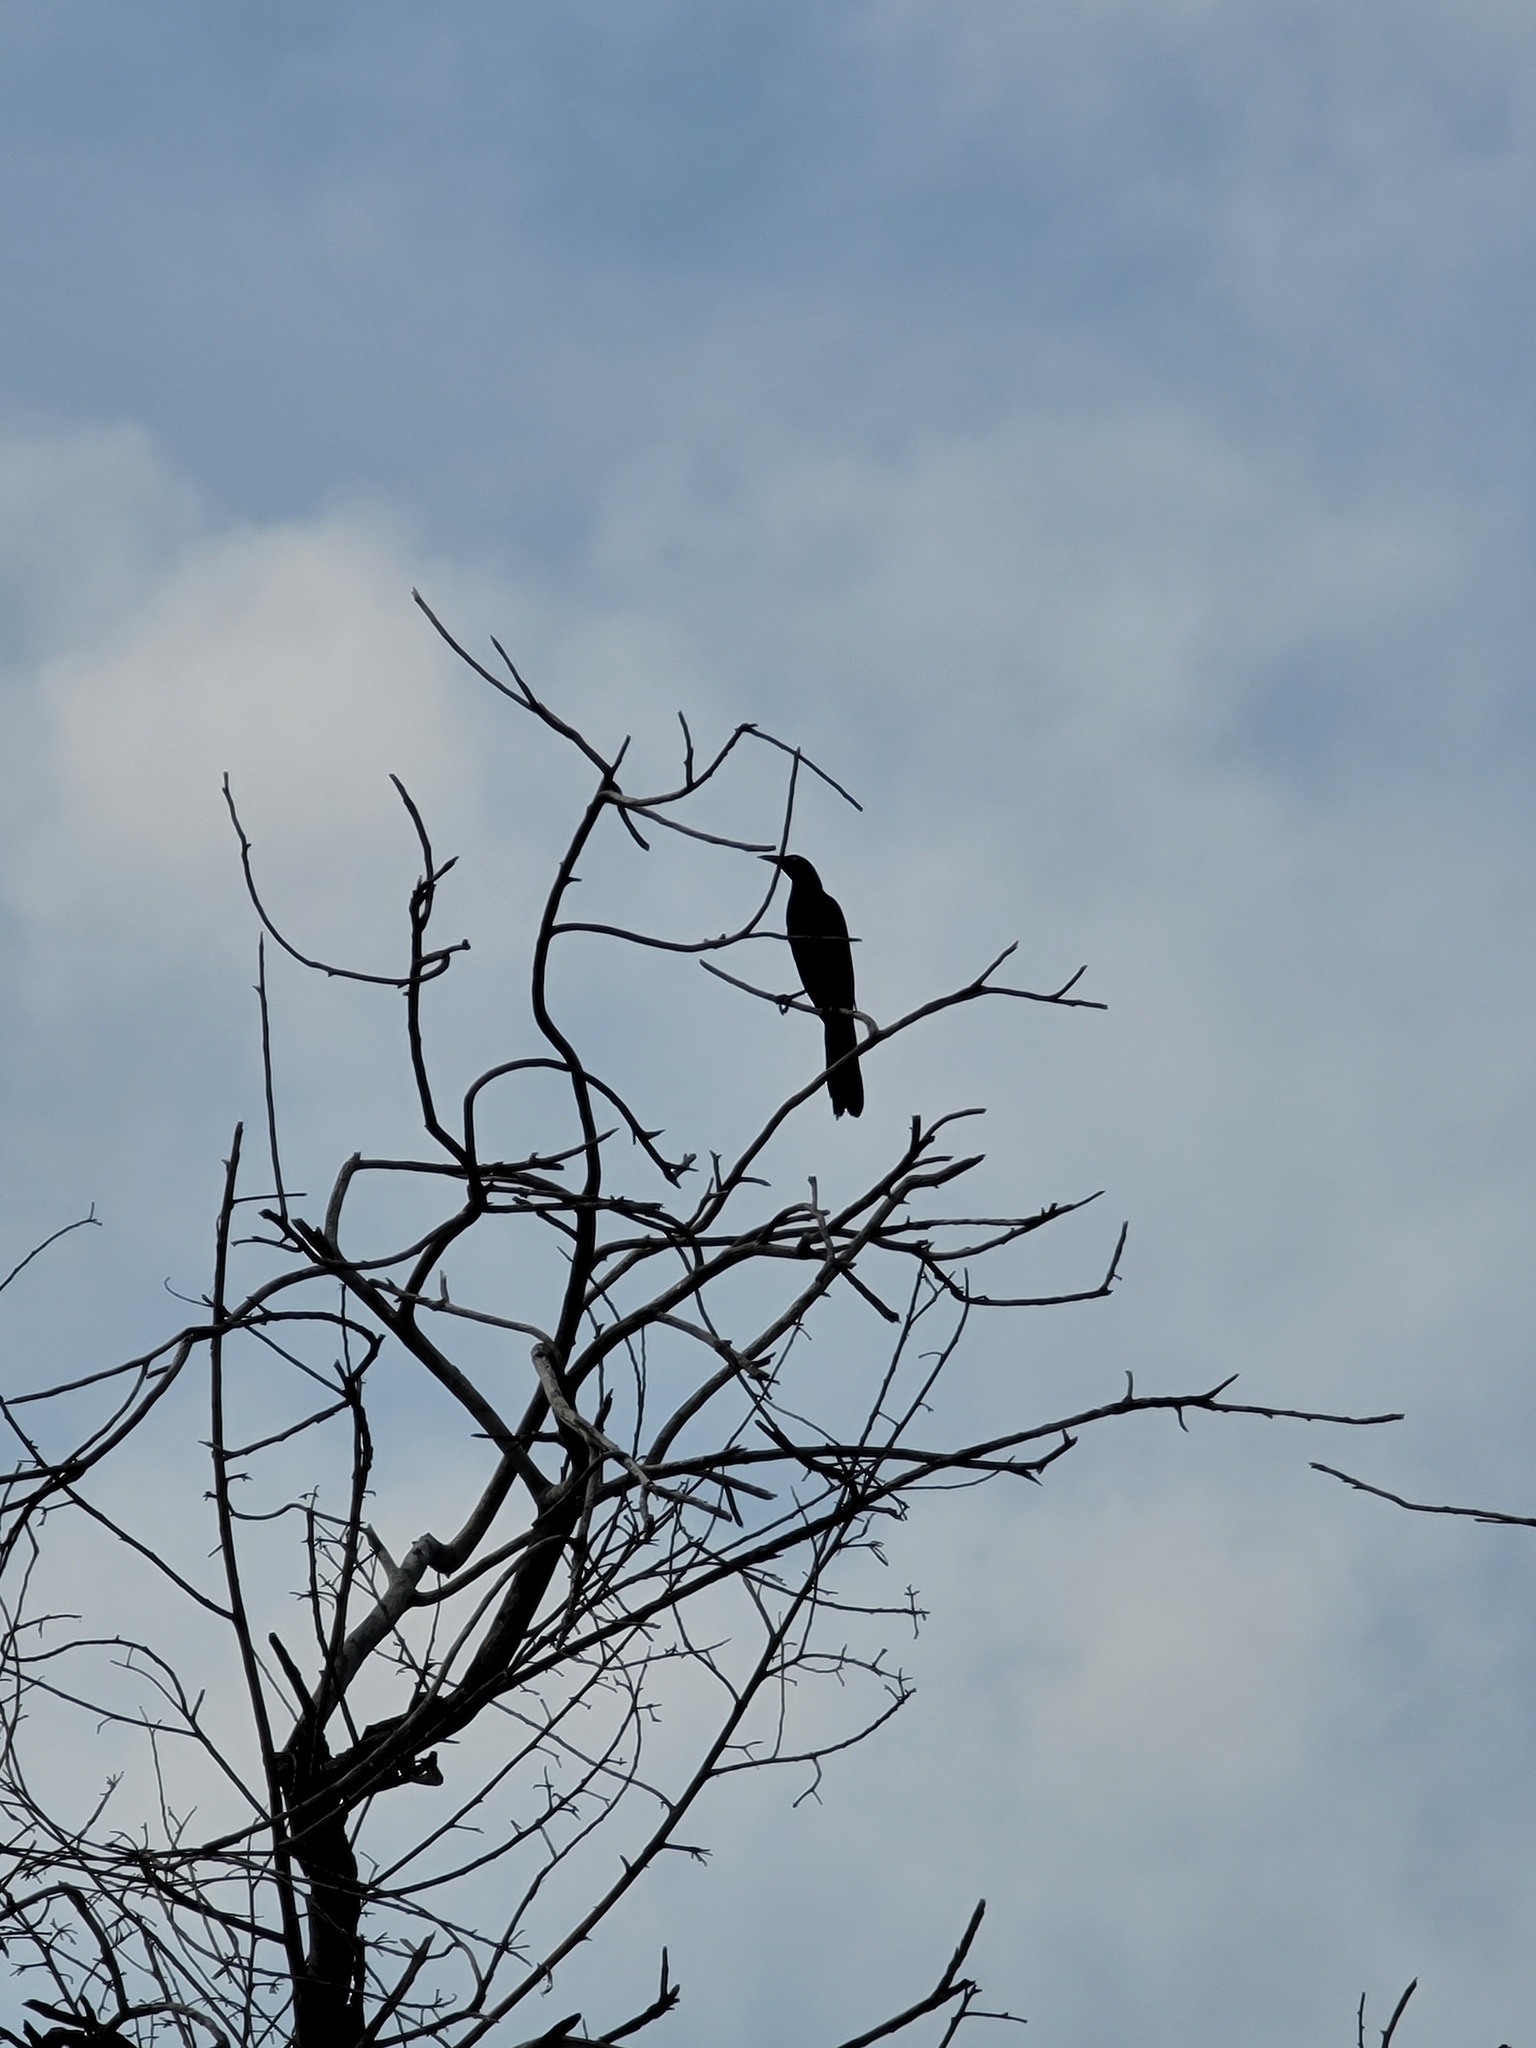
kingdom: Animalia
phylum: Chordata
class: Aves
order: Passeriformes
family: Icteridae
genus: Quiscalus
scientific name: Quiscalus mexicanus
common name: Great-tailed grackle
